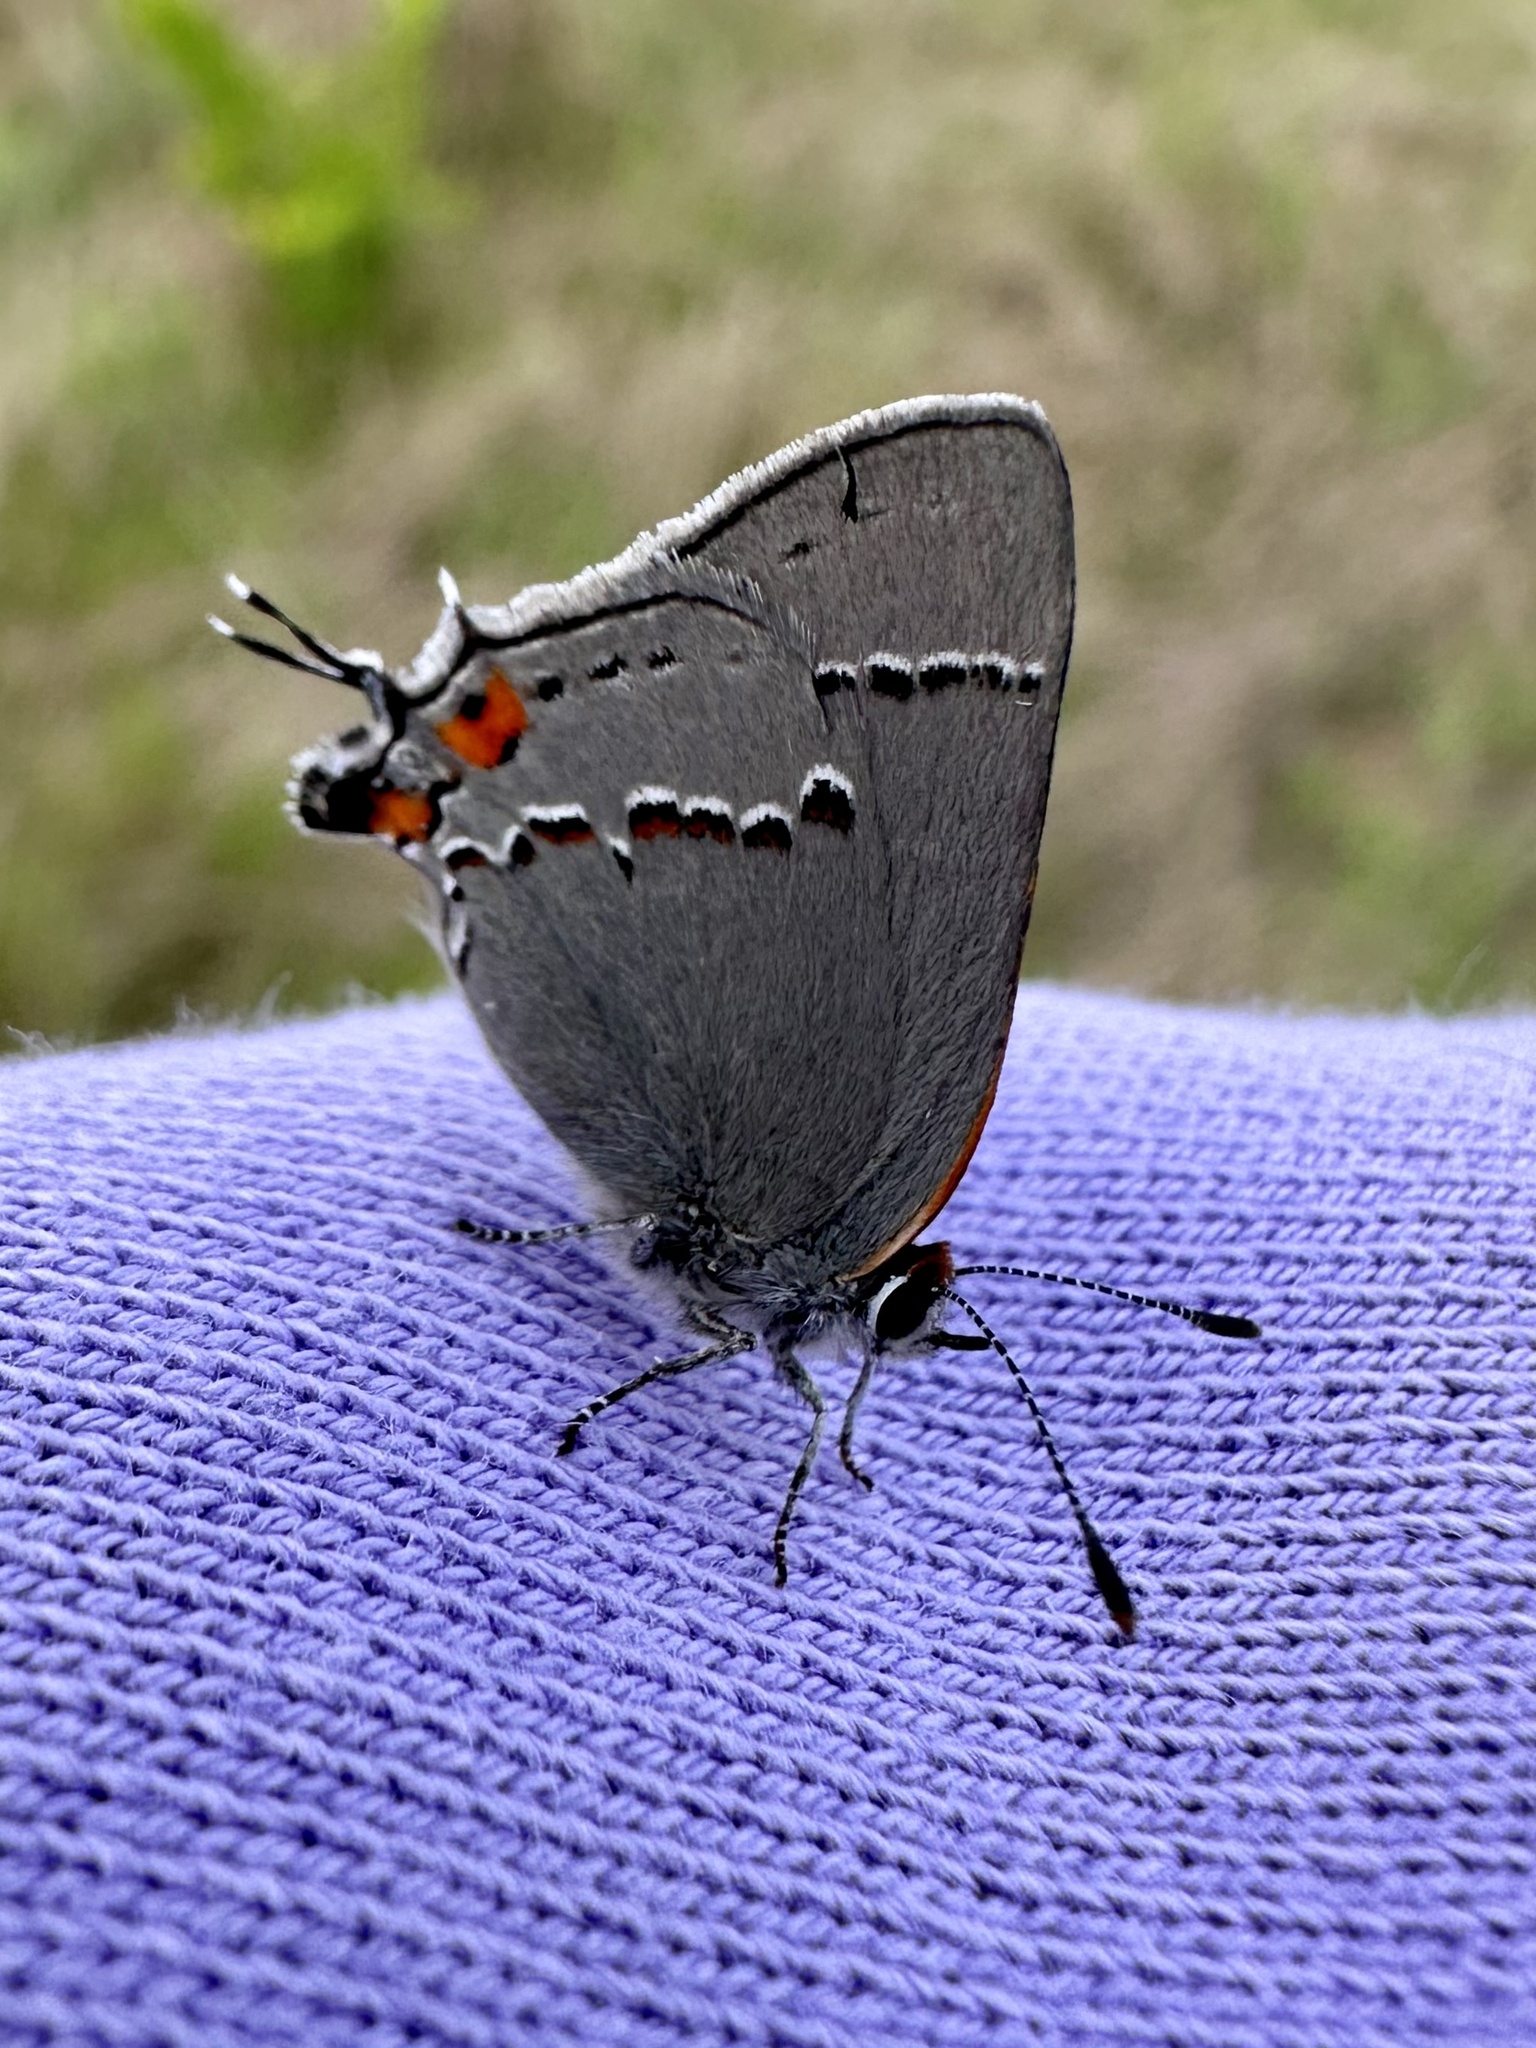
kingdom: Animalia
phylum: Arthropoda
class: Insecta
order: Lepidoptera
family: Lycaenidae
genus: Strymon
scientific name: Strymon melinus
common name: Gray hairstreak
